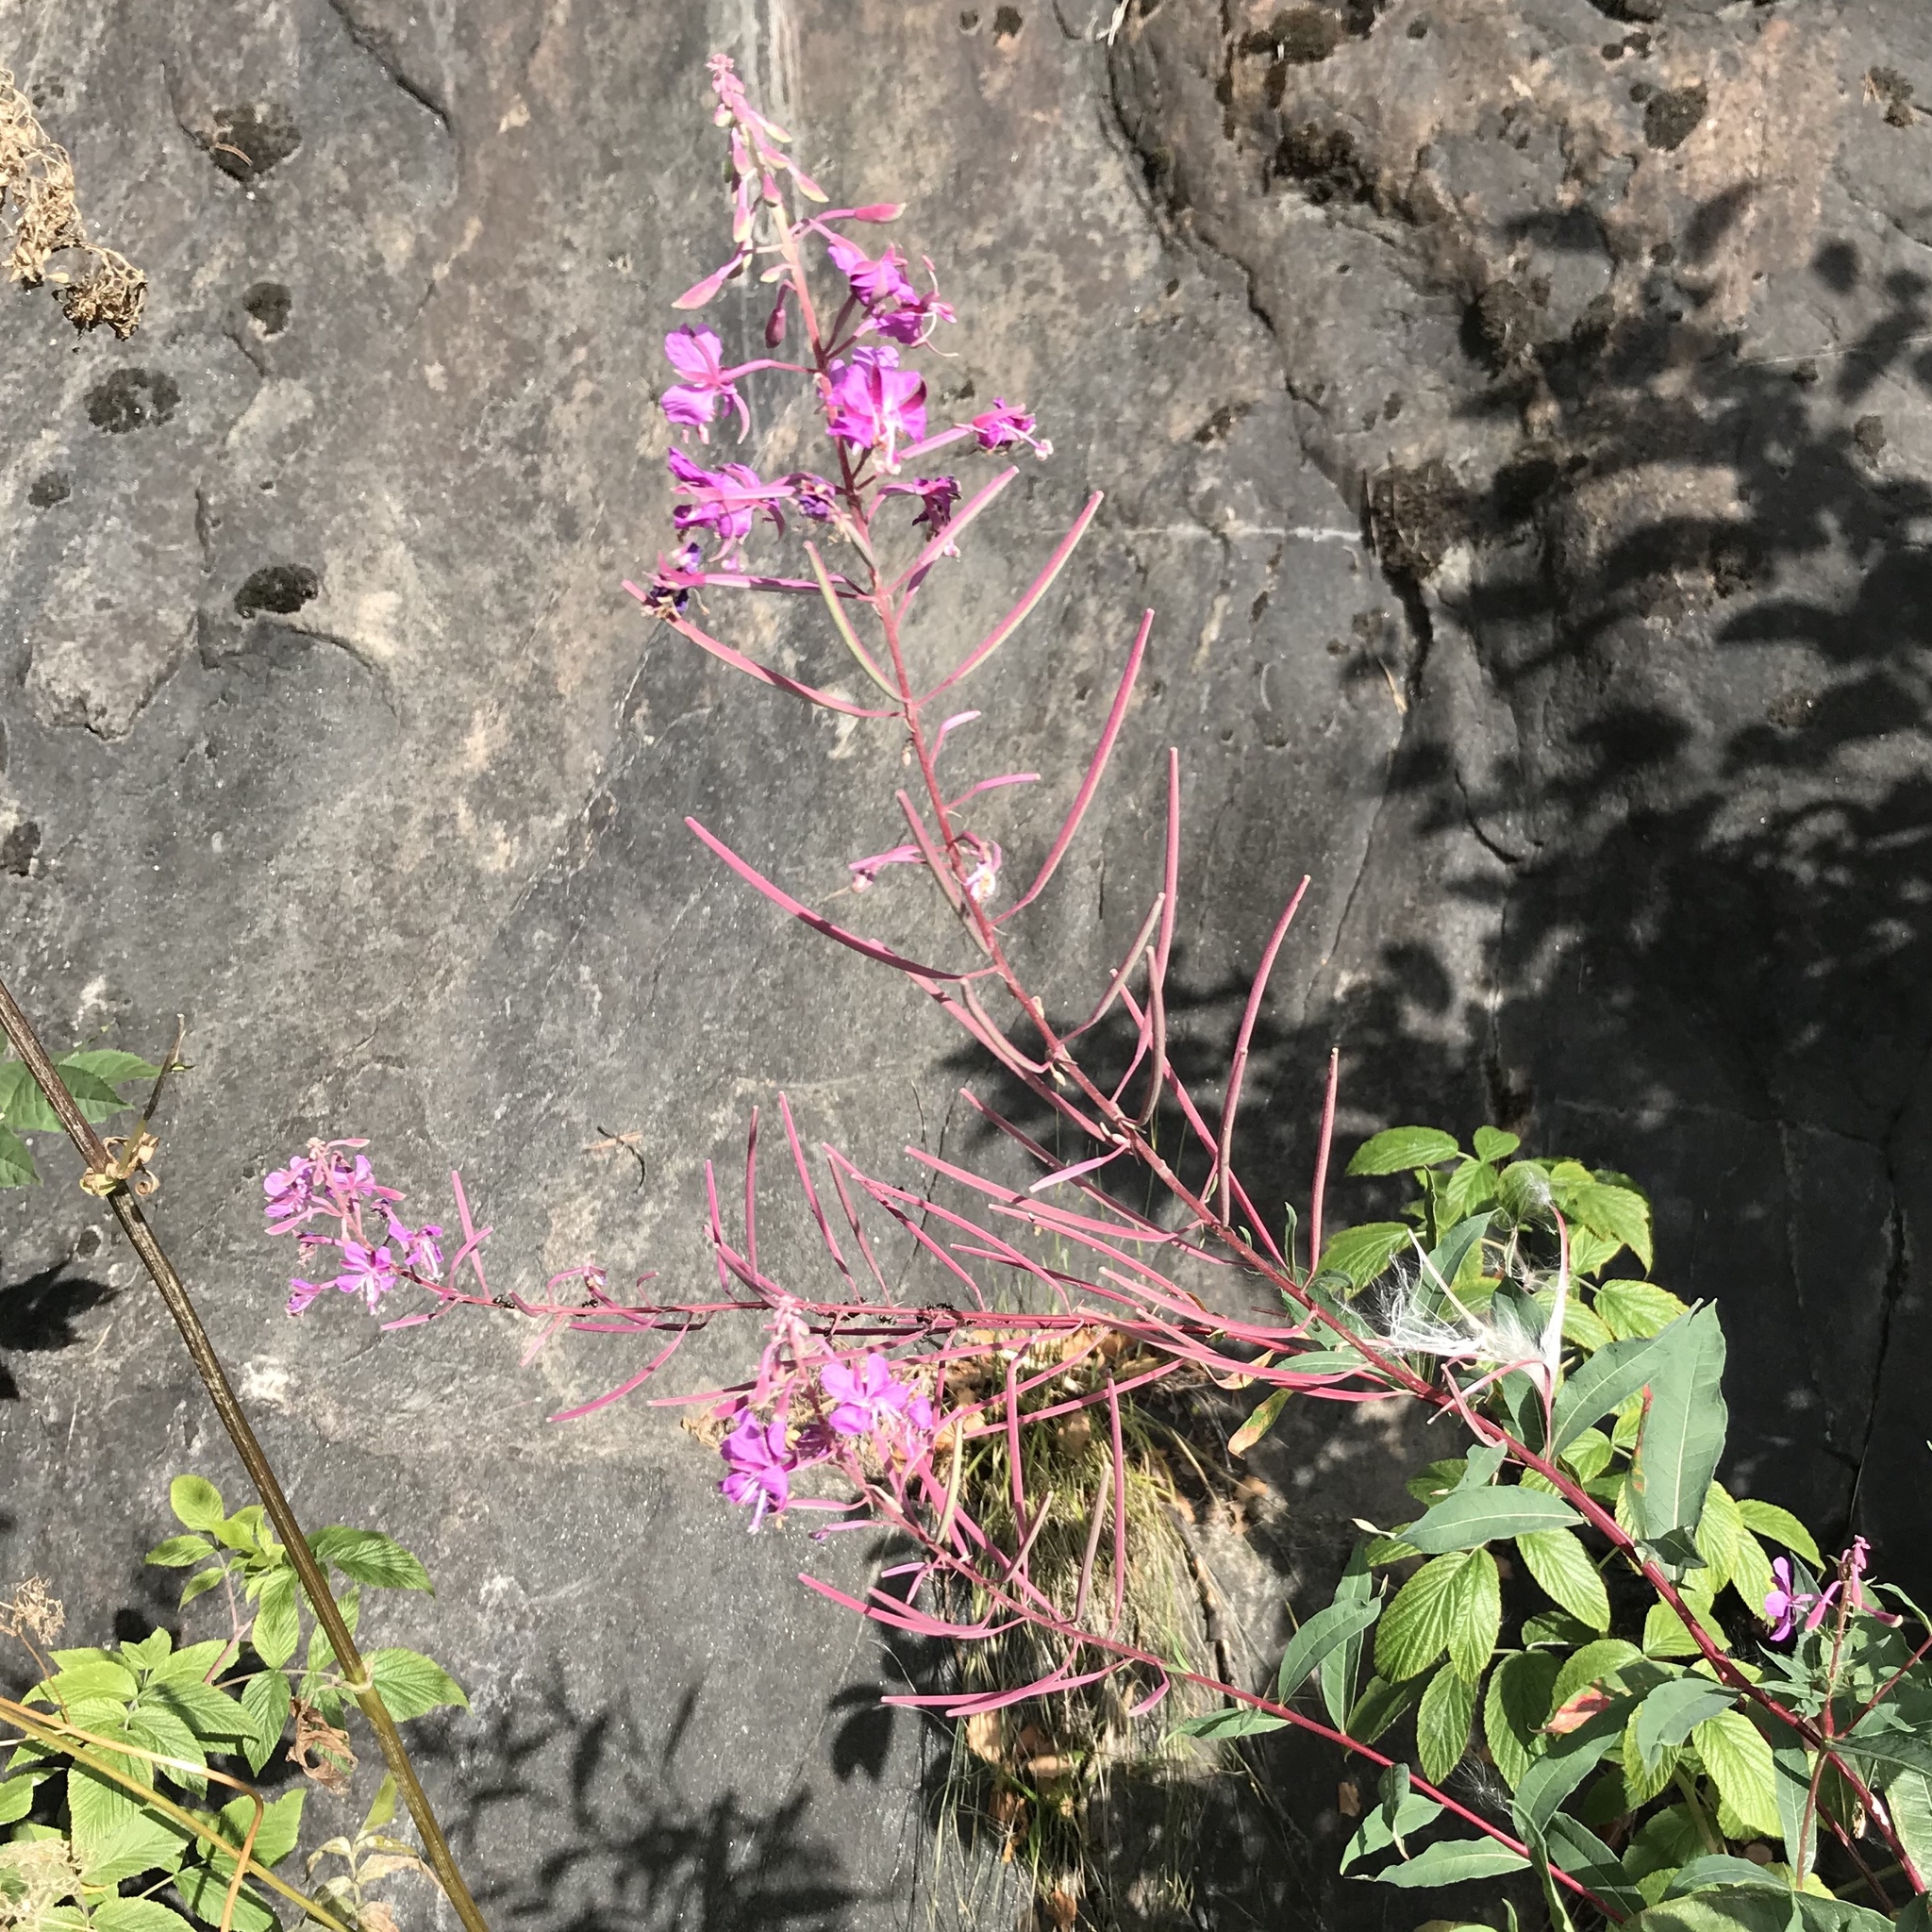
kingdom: Plantae
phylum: Tracheophyta
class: Magnoliopsida
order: Myrtales
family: Onagraceae
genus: Chamaenerion
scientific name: Chamaenerion angustifolium
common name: Fireweed
